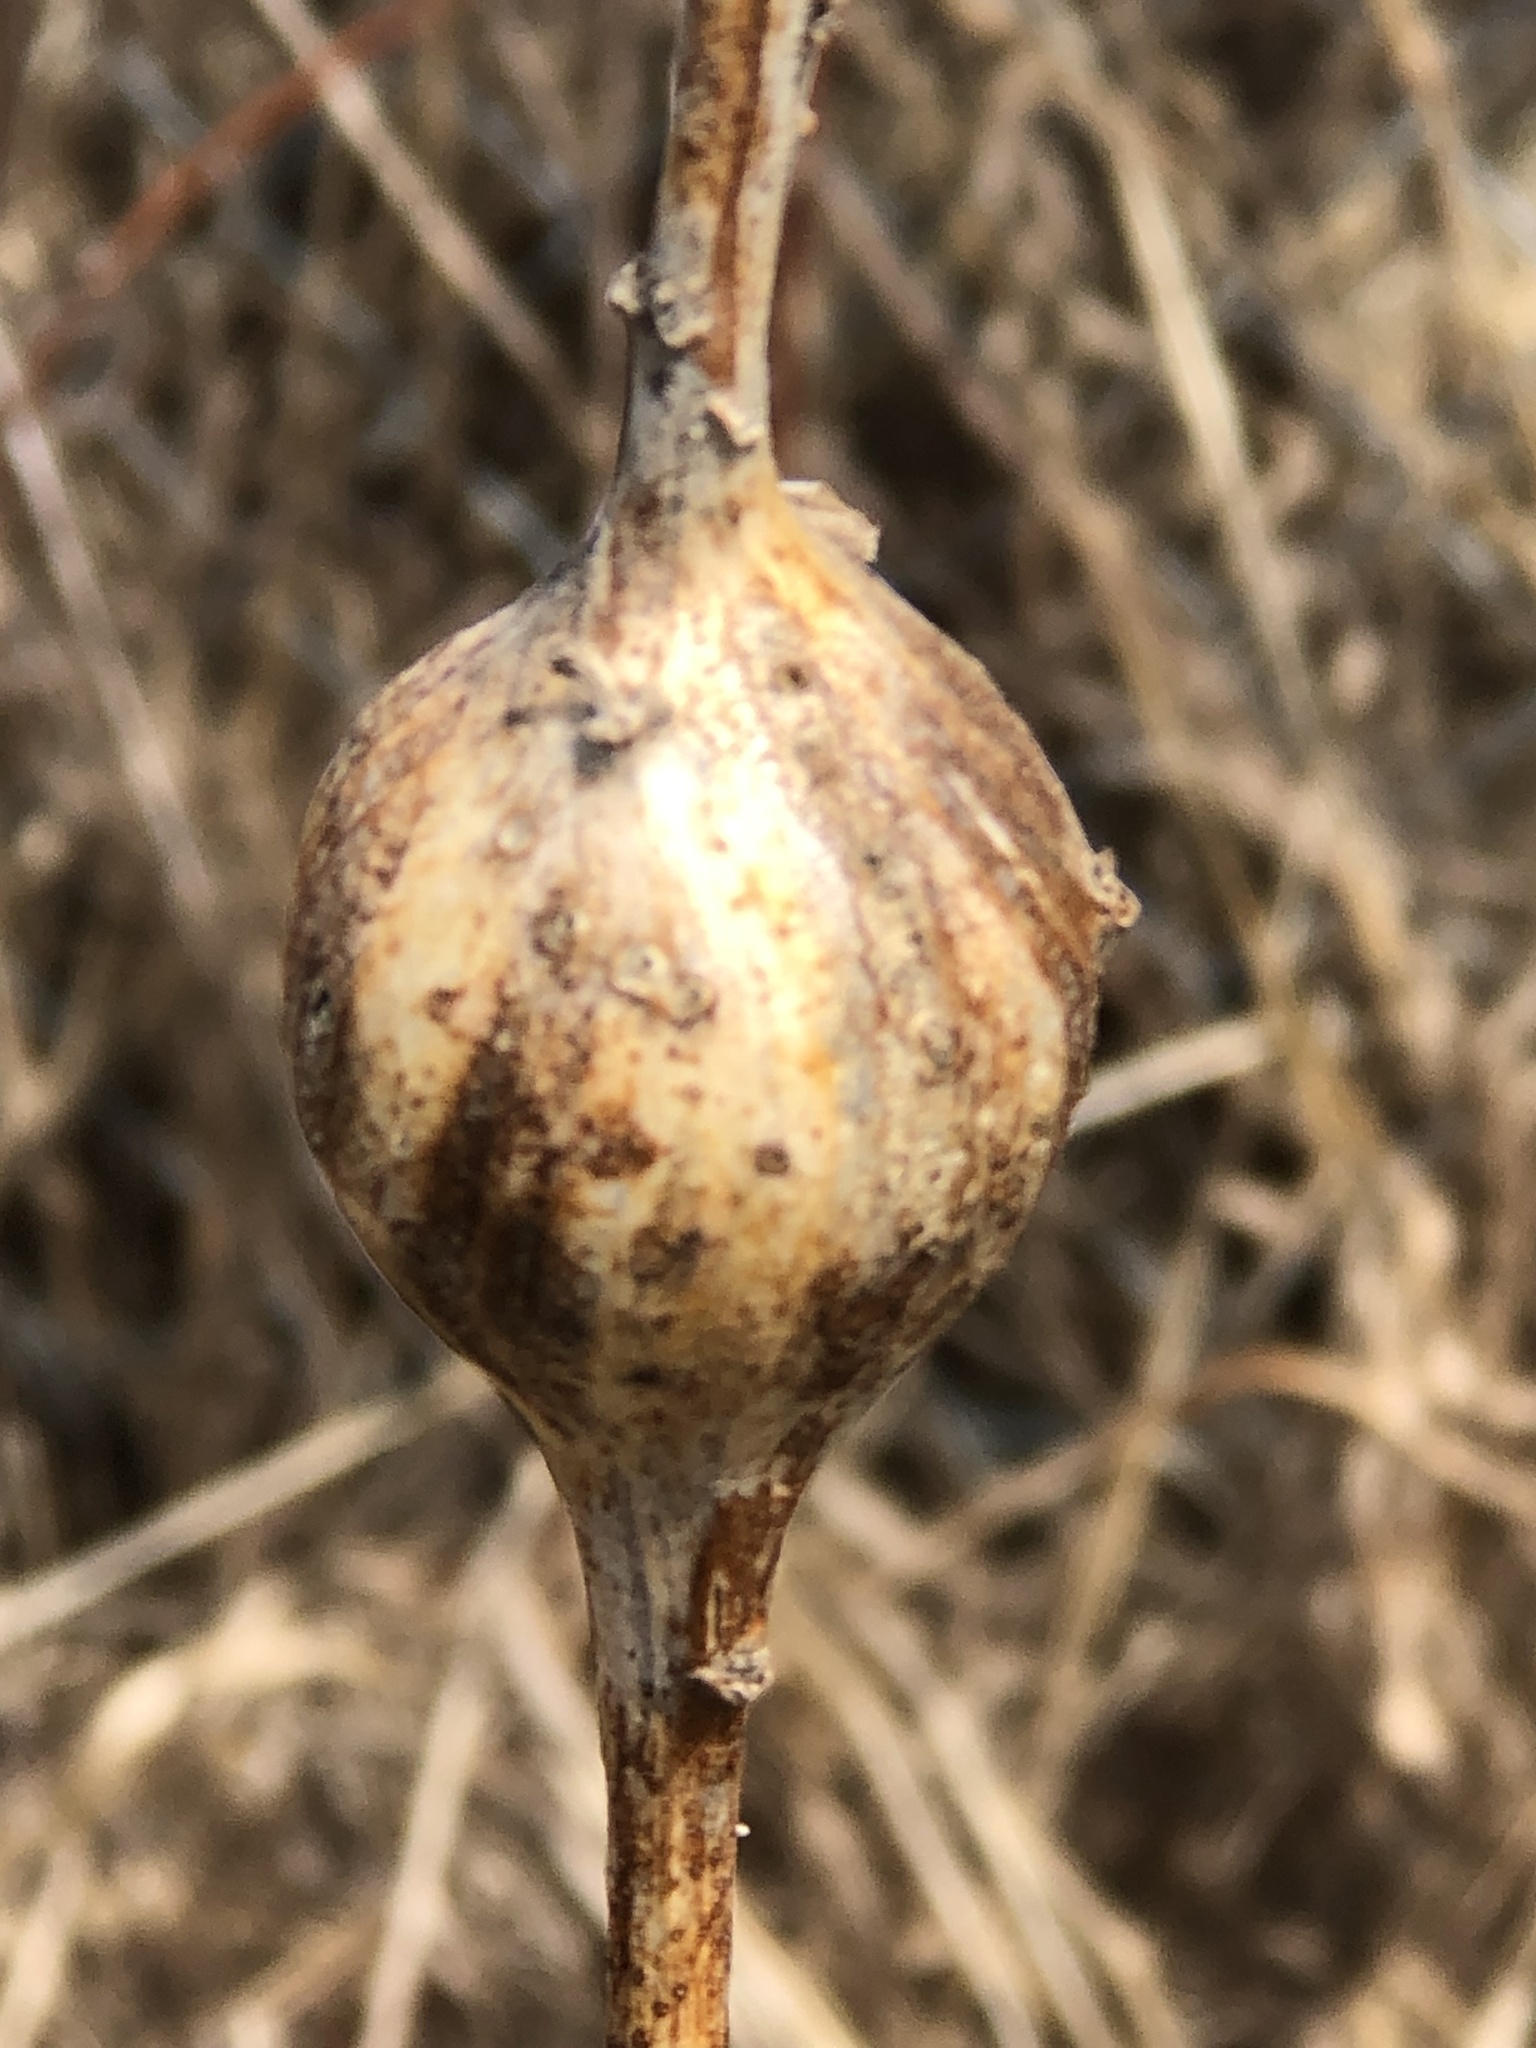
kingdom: Animalia
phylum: Arthropoda
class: Insecta
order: Diptera
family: Tephritidae
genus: Eurosta
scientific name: Eurosta solidaginis
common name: Goldenrod gall fly
